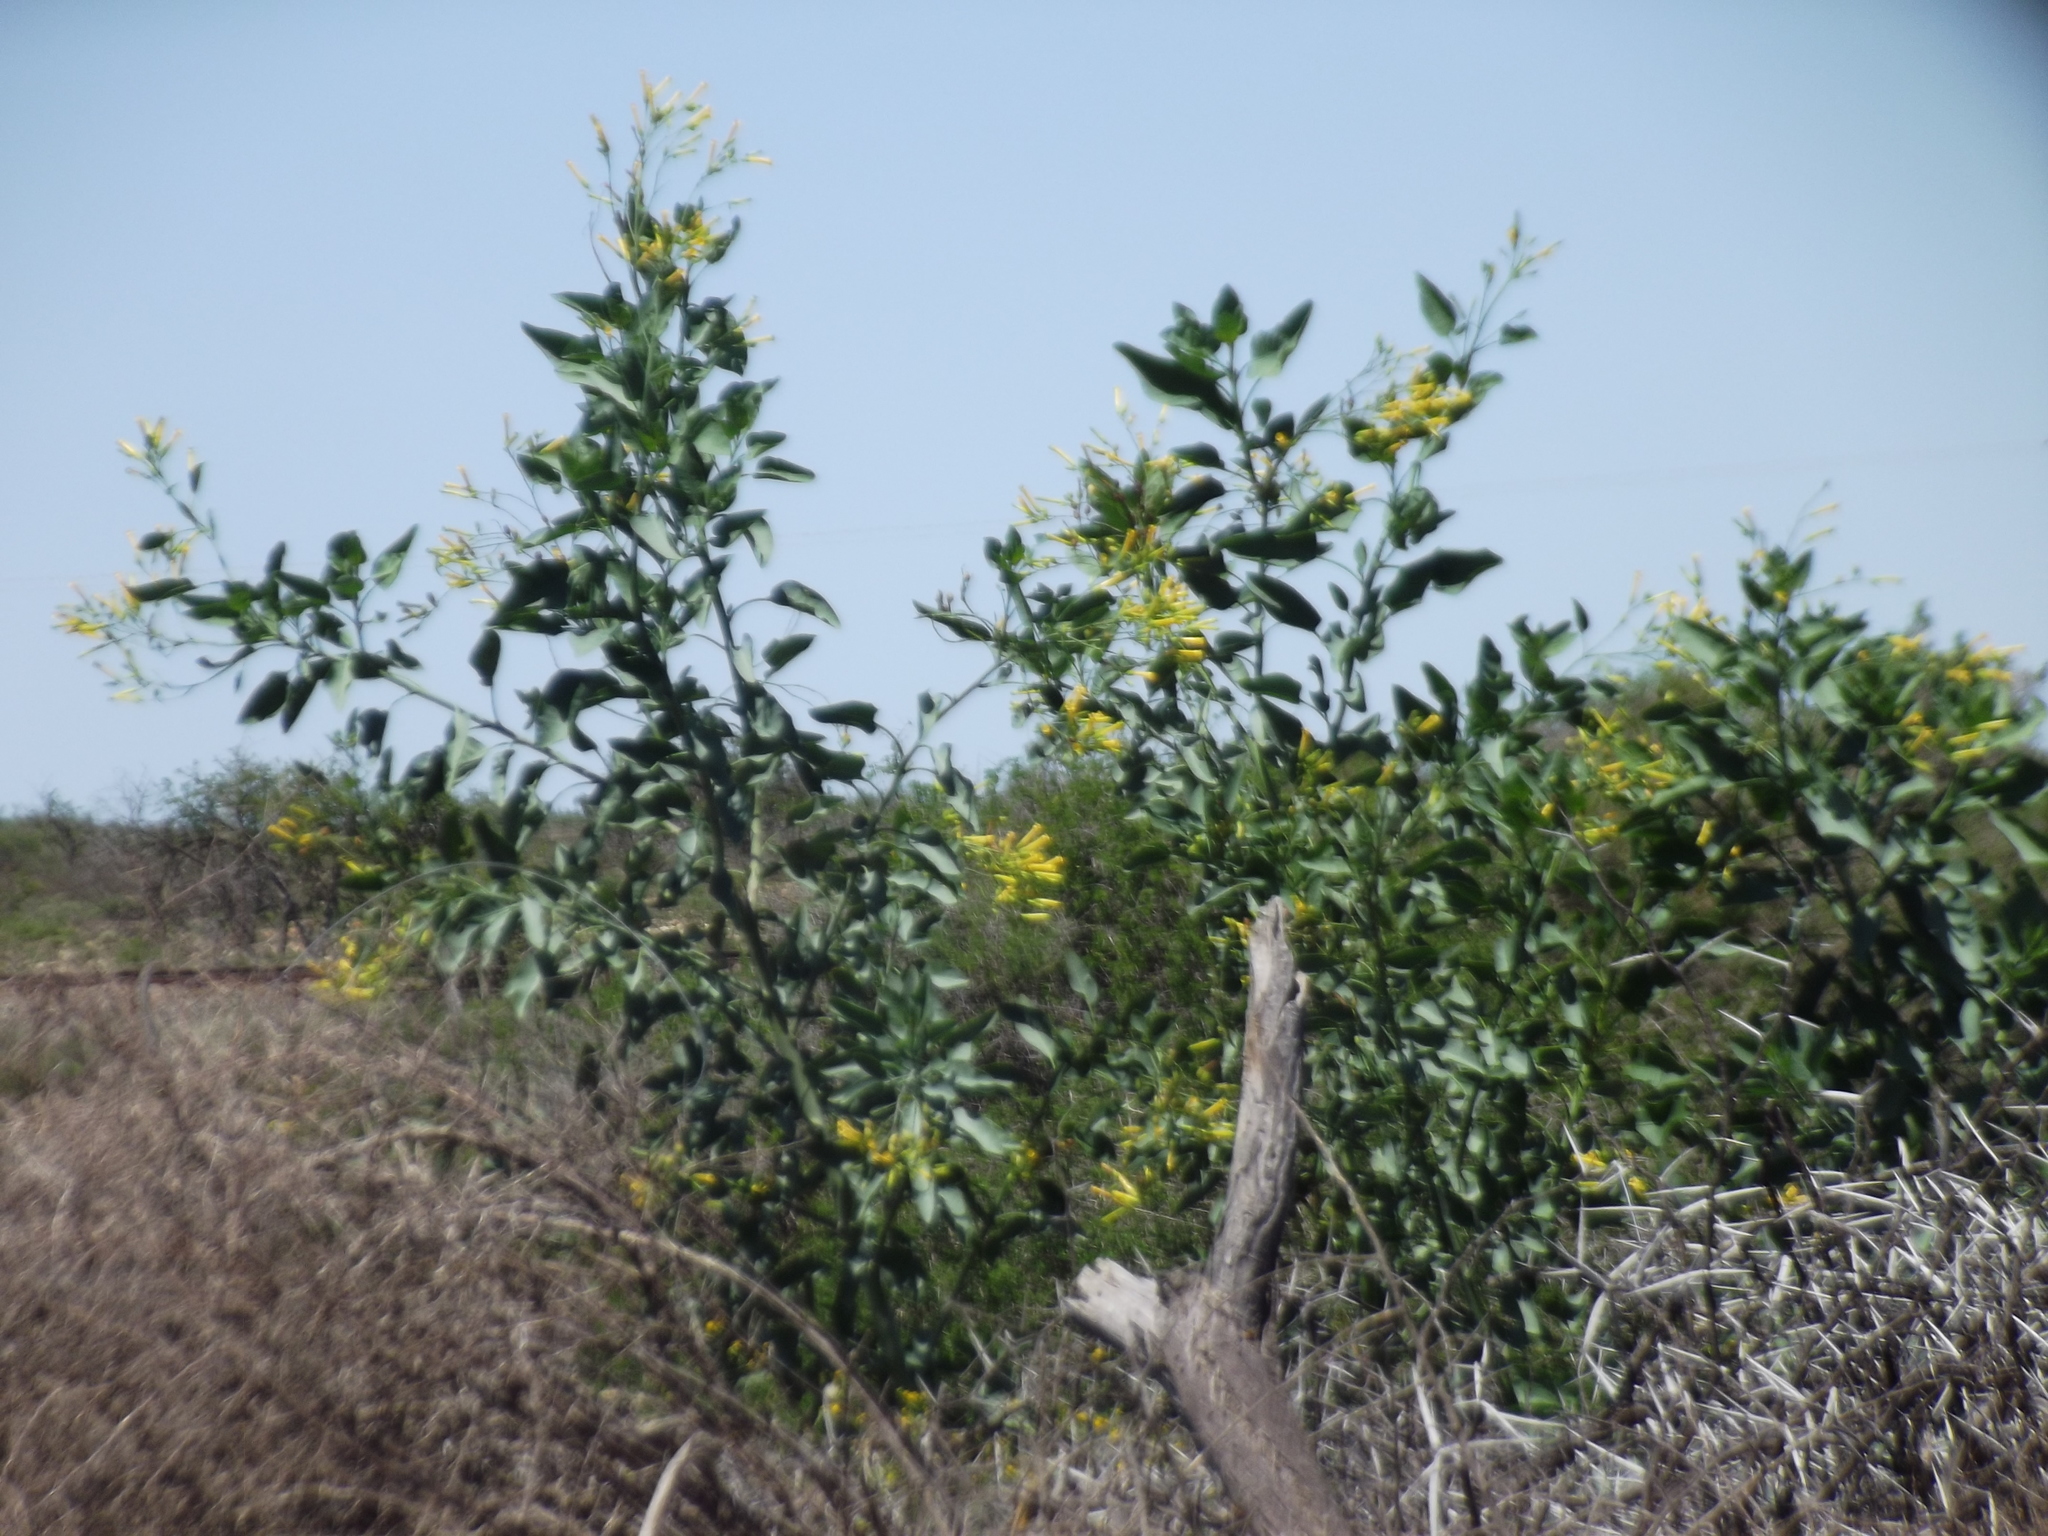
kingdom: Plantae
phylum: Tracheophyta
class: Magnoliopsida
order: Solanales
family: Solanaceae
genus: Nicotiana
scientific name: Nicotiana glauca
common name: Tree tobacco
